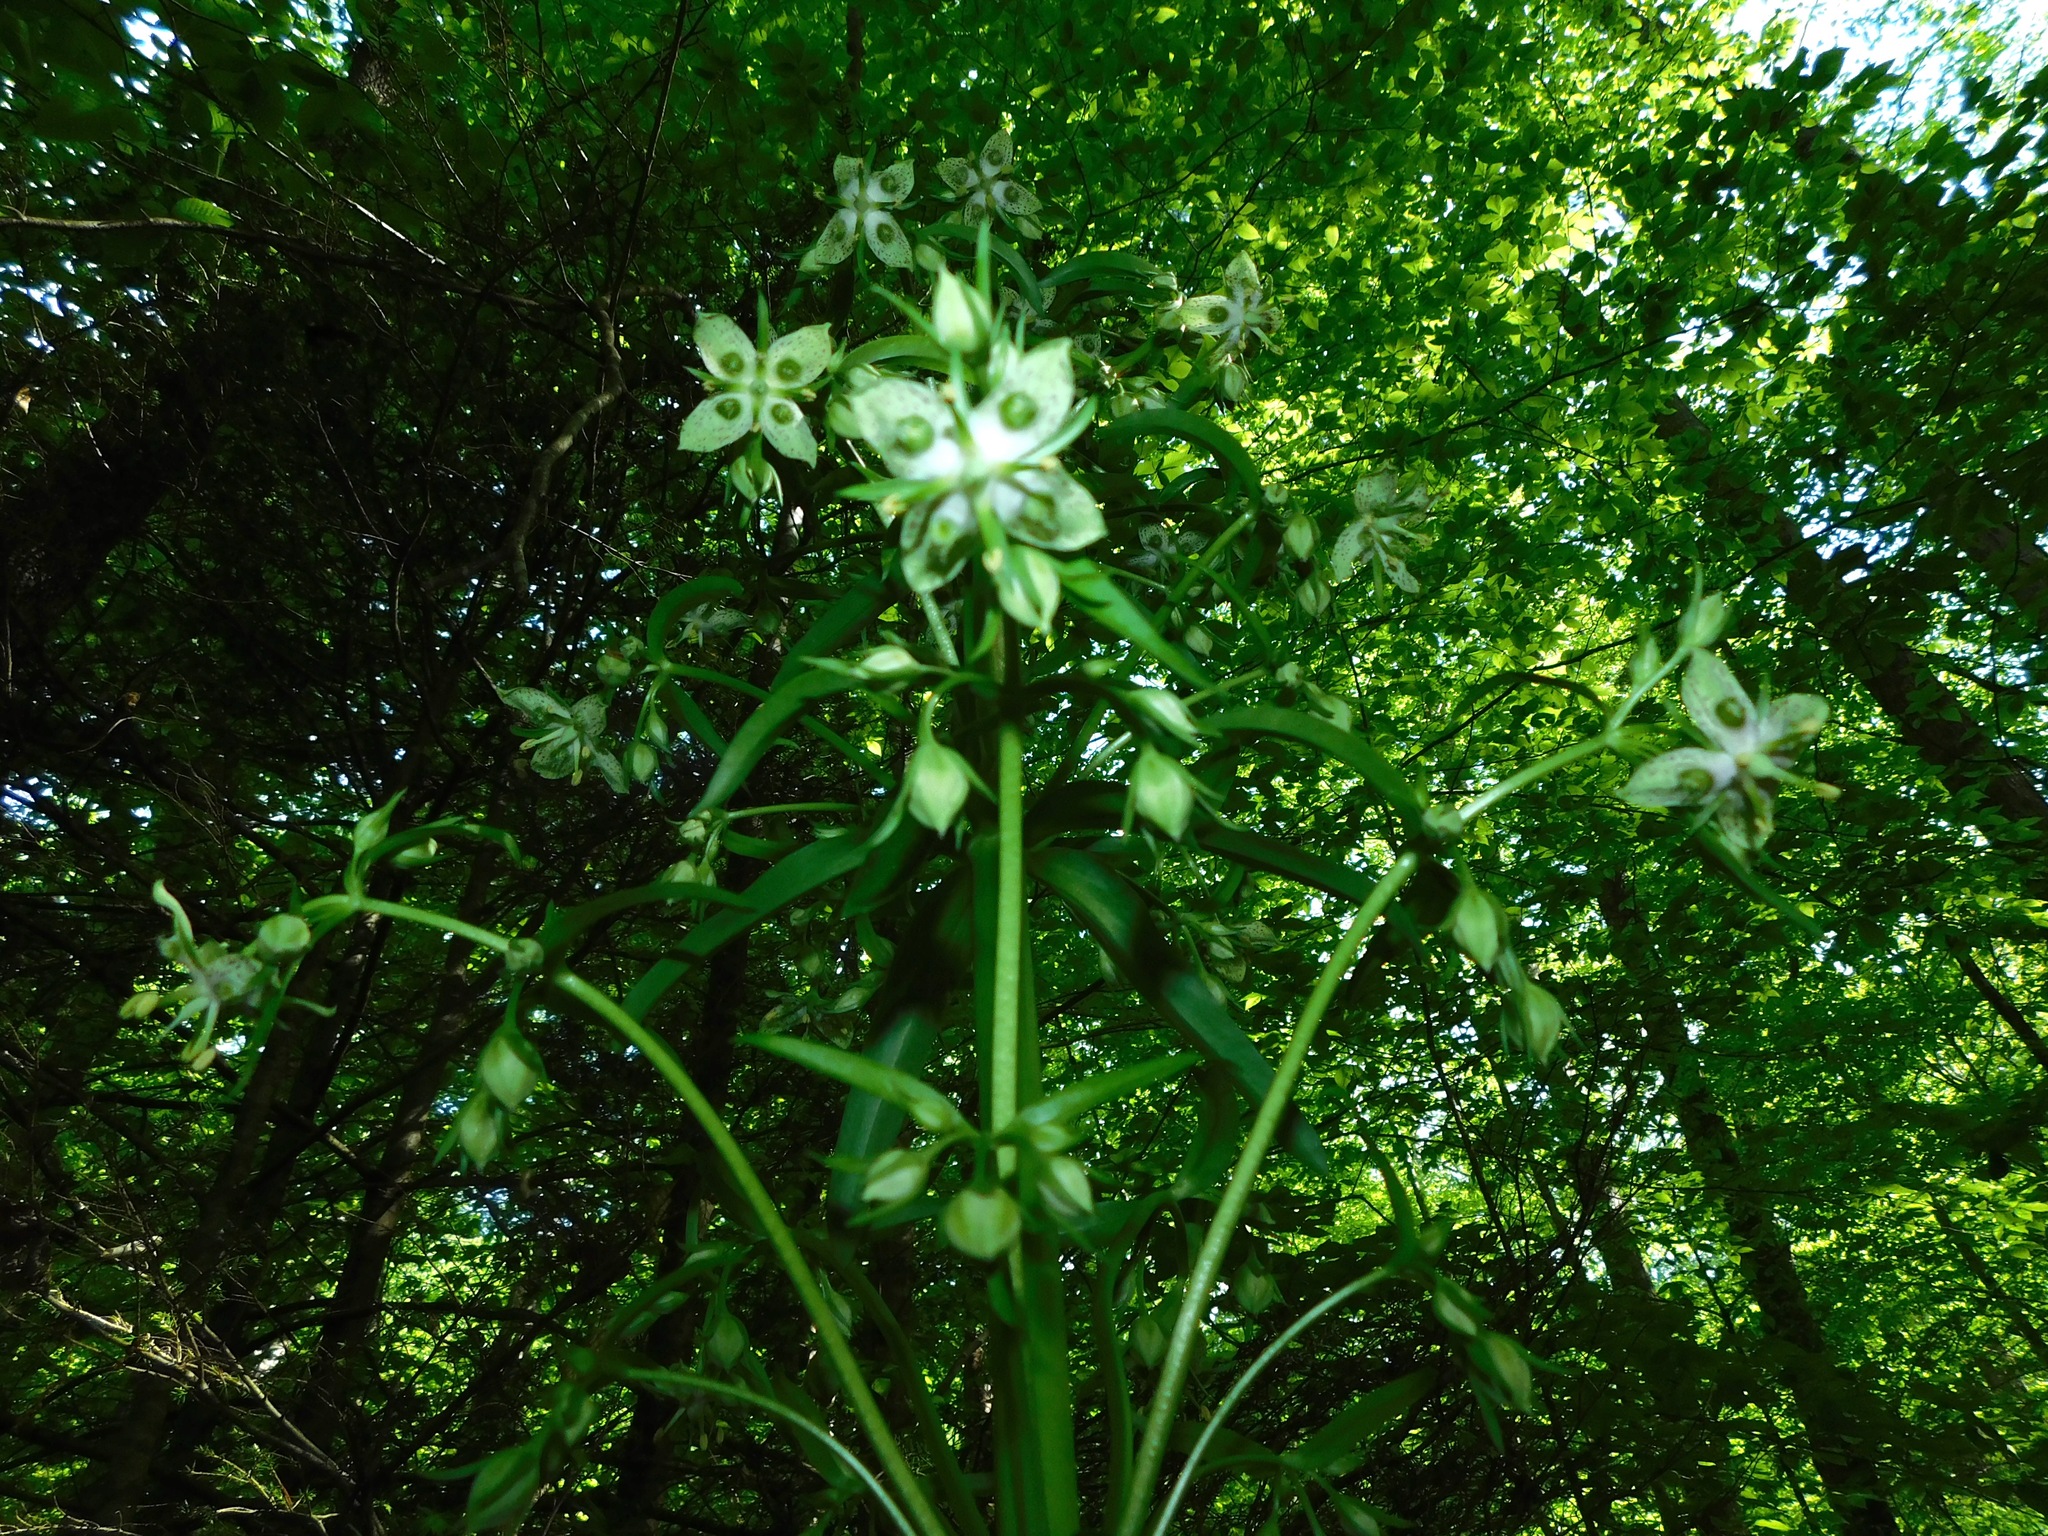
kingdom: Plantae
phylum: Tracheophyta
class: Magnoliopsida
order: Gentianales
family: Gentianaceae
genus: Frasera
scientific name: Frasera caroliniensis
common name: American columbo
